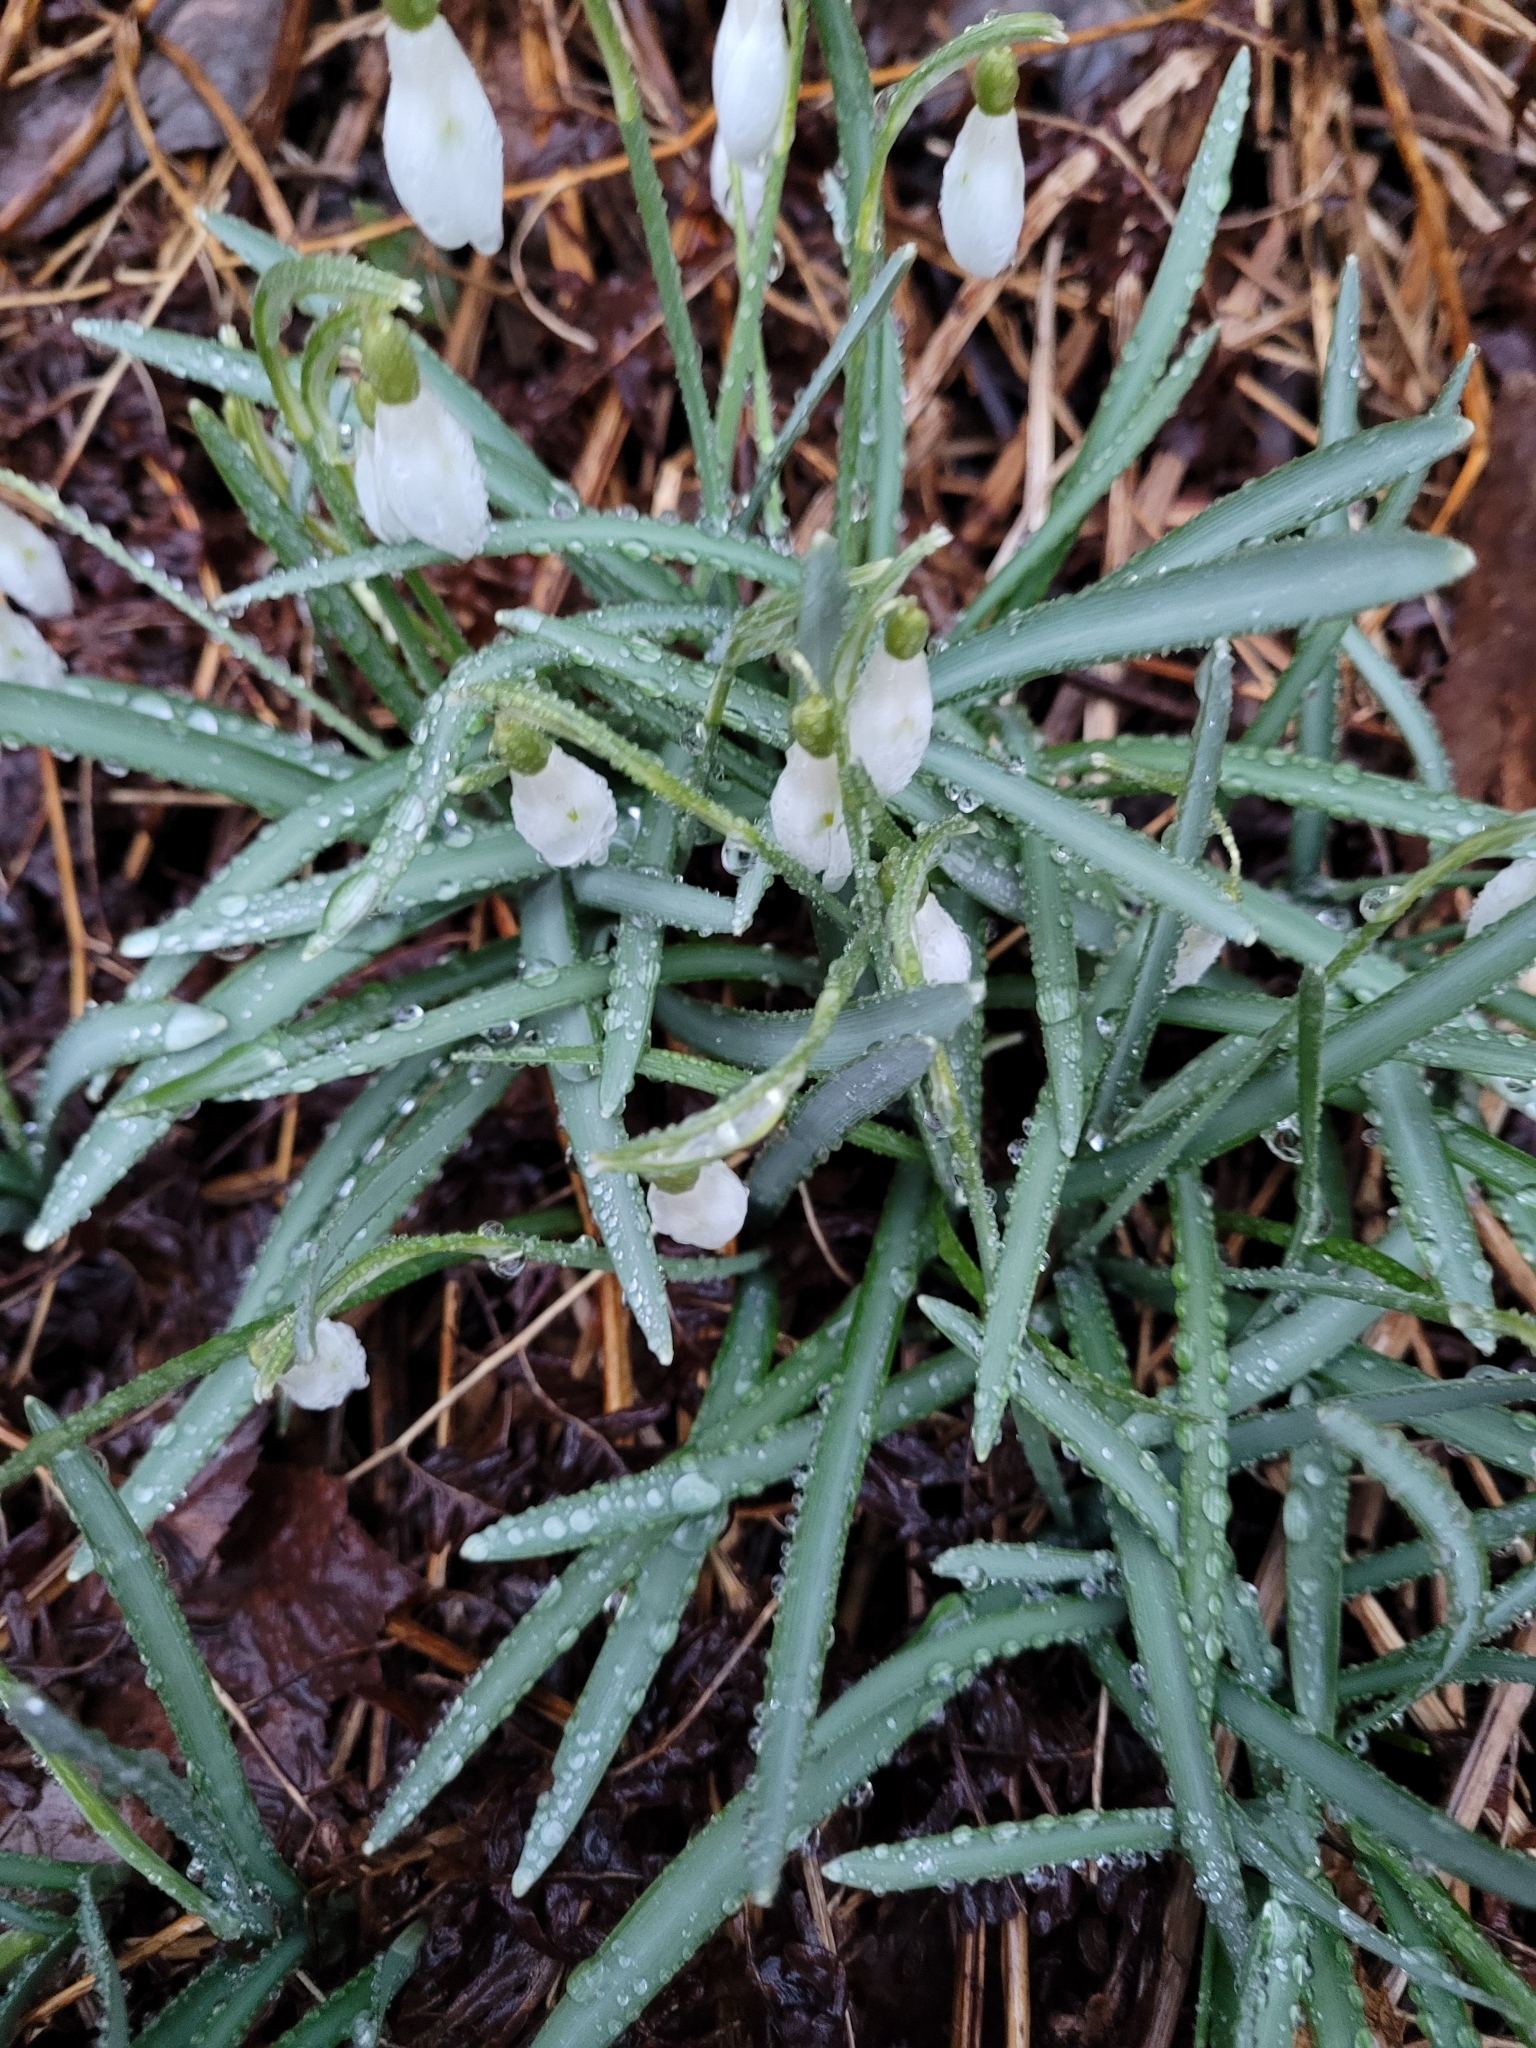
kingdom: Plantae
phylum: Tracheophyta
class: Liliopsida
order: Asparagales
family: Amaryllidaceae
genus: Galanthus
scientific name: Galanthus nivalis
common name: Snowdrop
